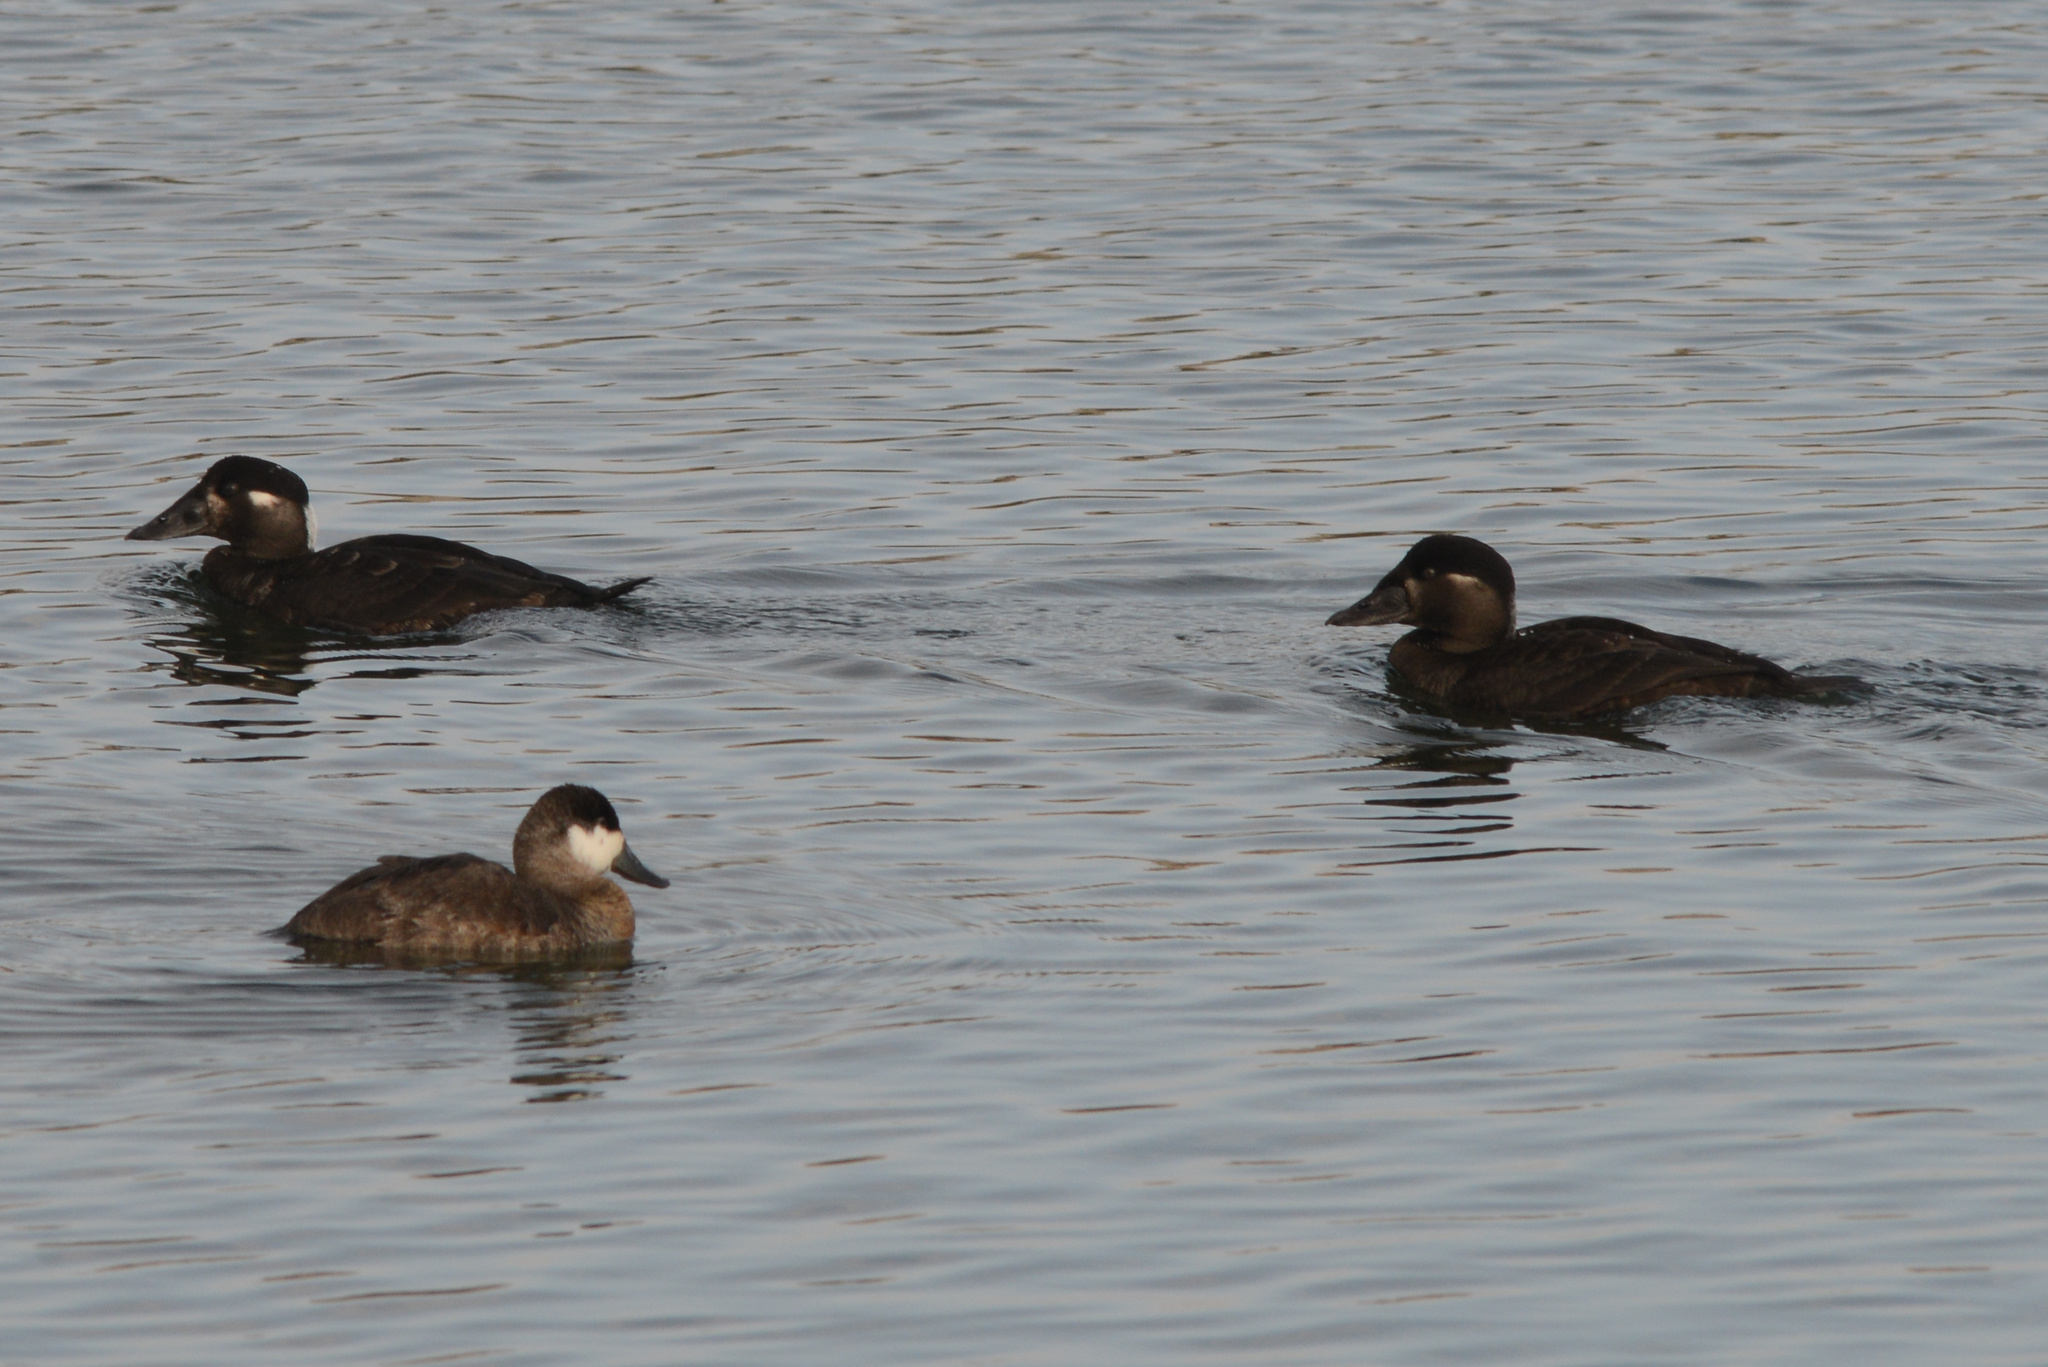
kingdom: Animalia
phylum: Chordata
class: Aves
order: Anseriformes
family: Anatidae
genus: Melanitta
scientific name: Melanitta perspicillata
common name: Surf scoter
